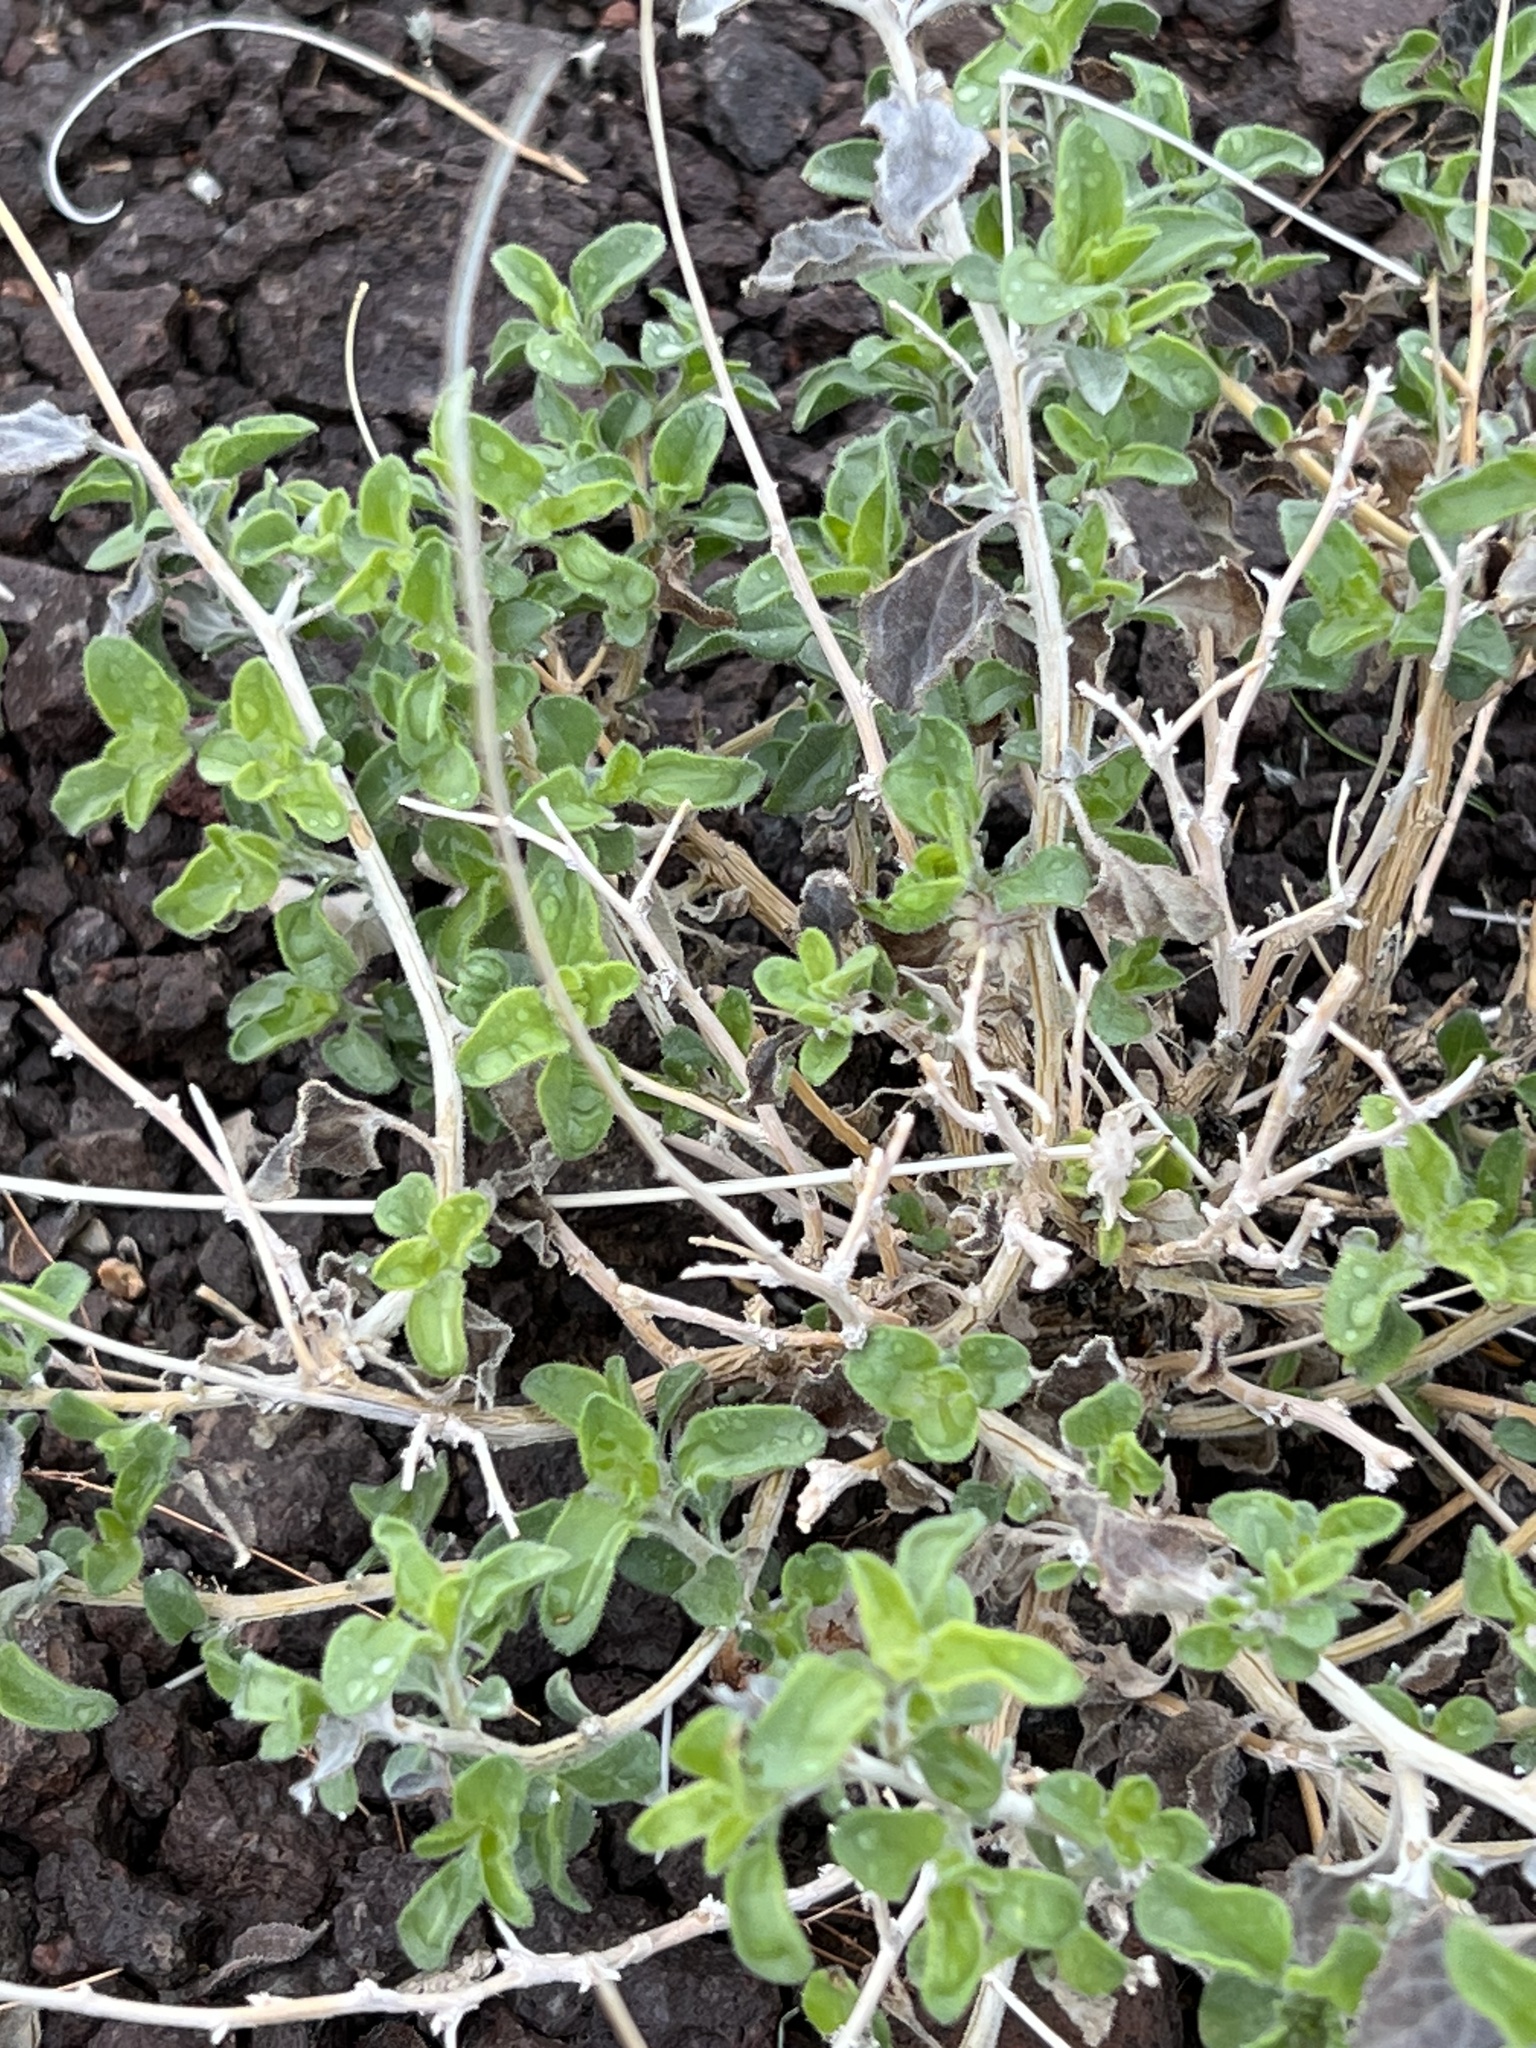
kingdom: Plantae
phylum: Tracheophyta
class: Magnoliopsida
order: Asterales
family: Asteraceae
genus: Encelia
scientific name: Encelia virginensis
